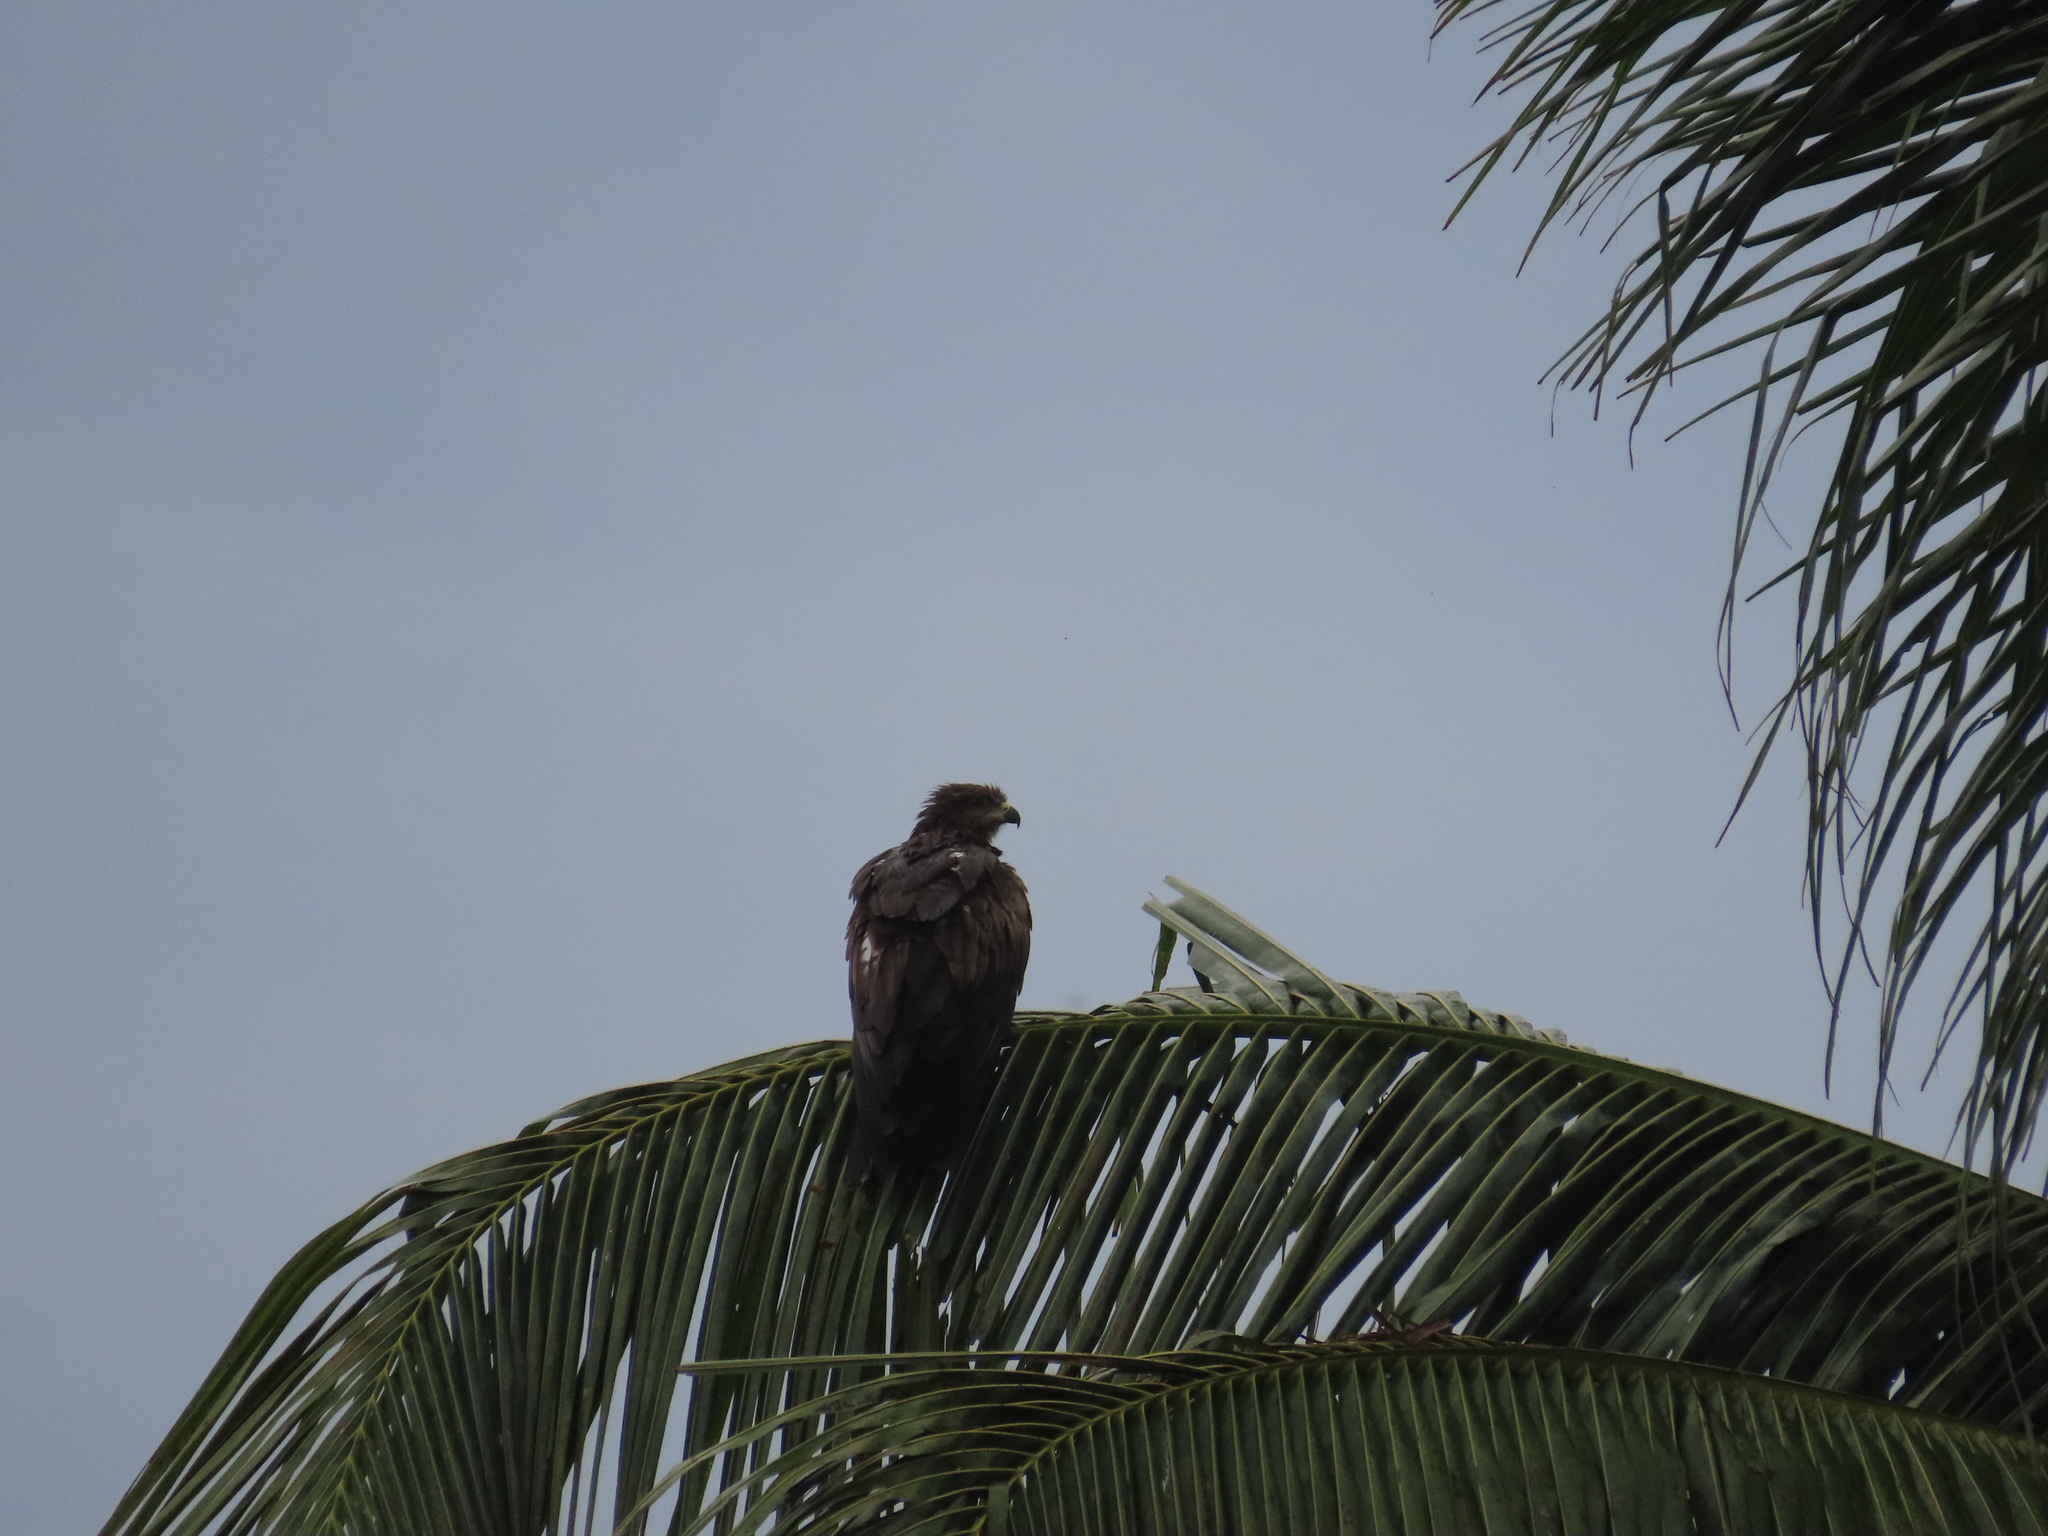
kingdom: Animalia
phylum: Chordata
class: Aves
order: Accipitriformes
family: Accipitridae
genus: Milvus
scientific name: Milvus migrans
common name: Black kite
